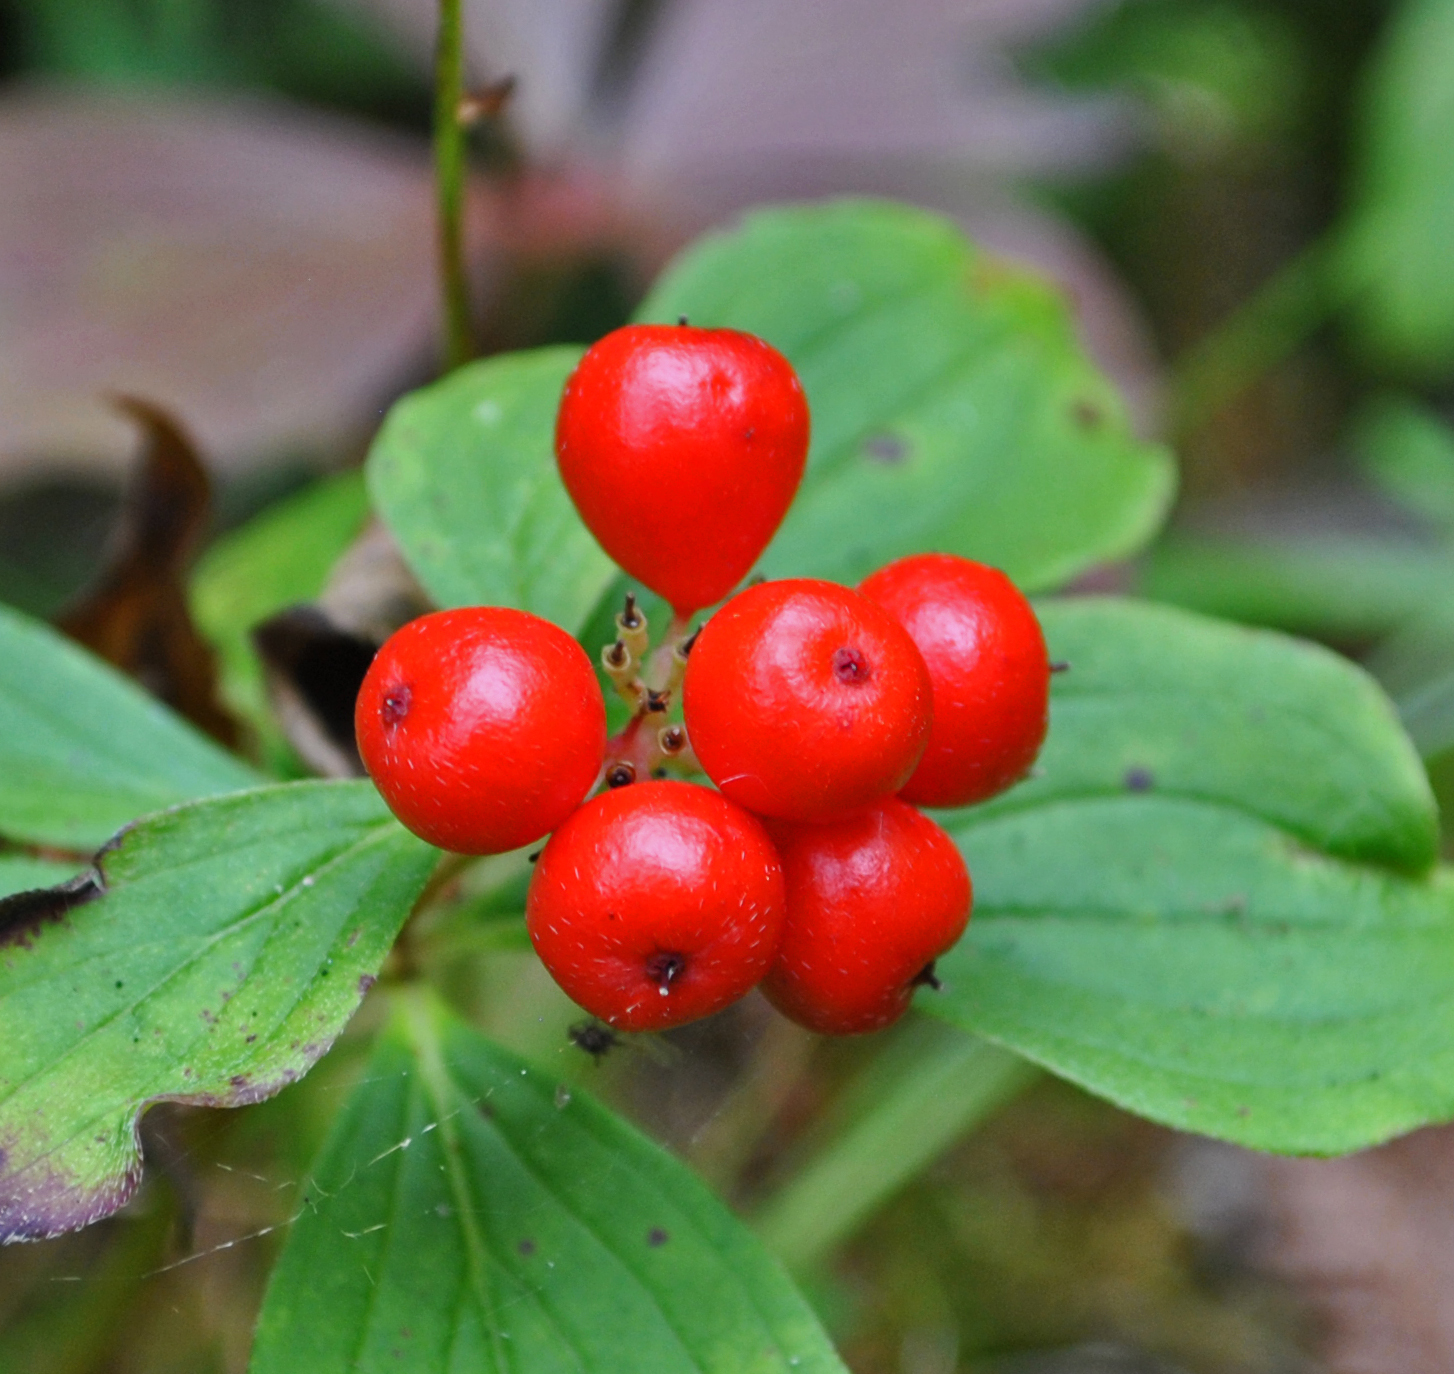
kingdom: Plantae
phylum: Tracheophyta
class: Magnoliopsida
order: Cornales
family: Cornaceae
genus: Cornus
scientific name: Cornus canadensis
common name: Creeping dogwood
